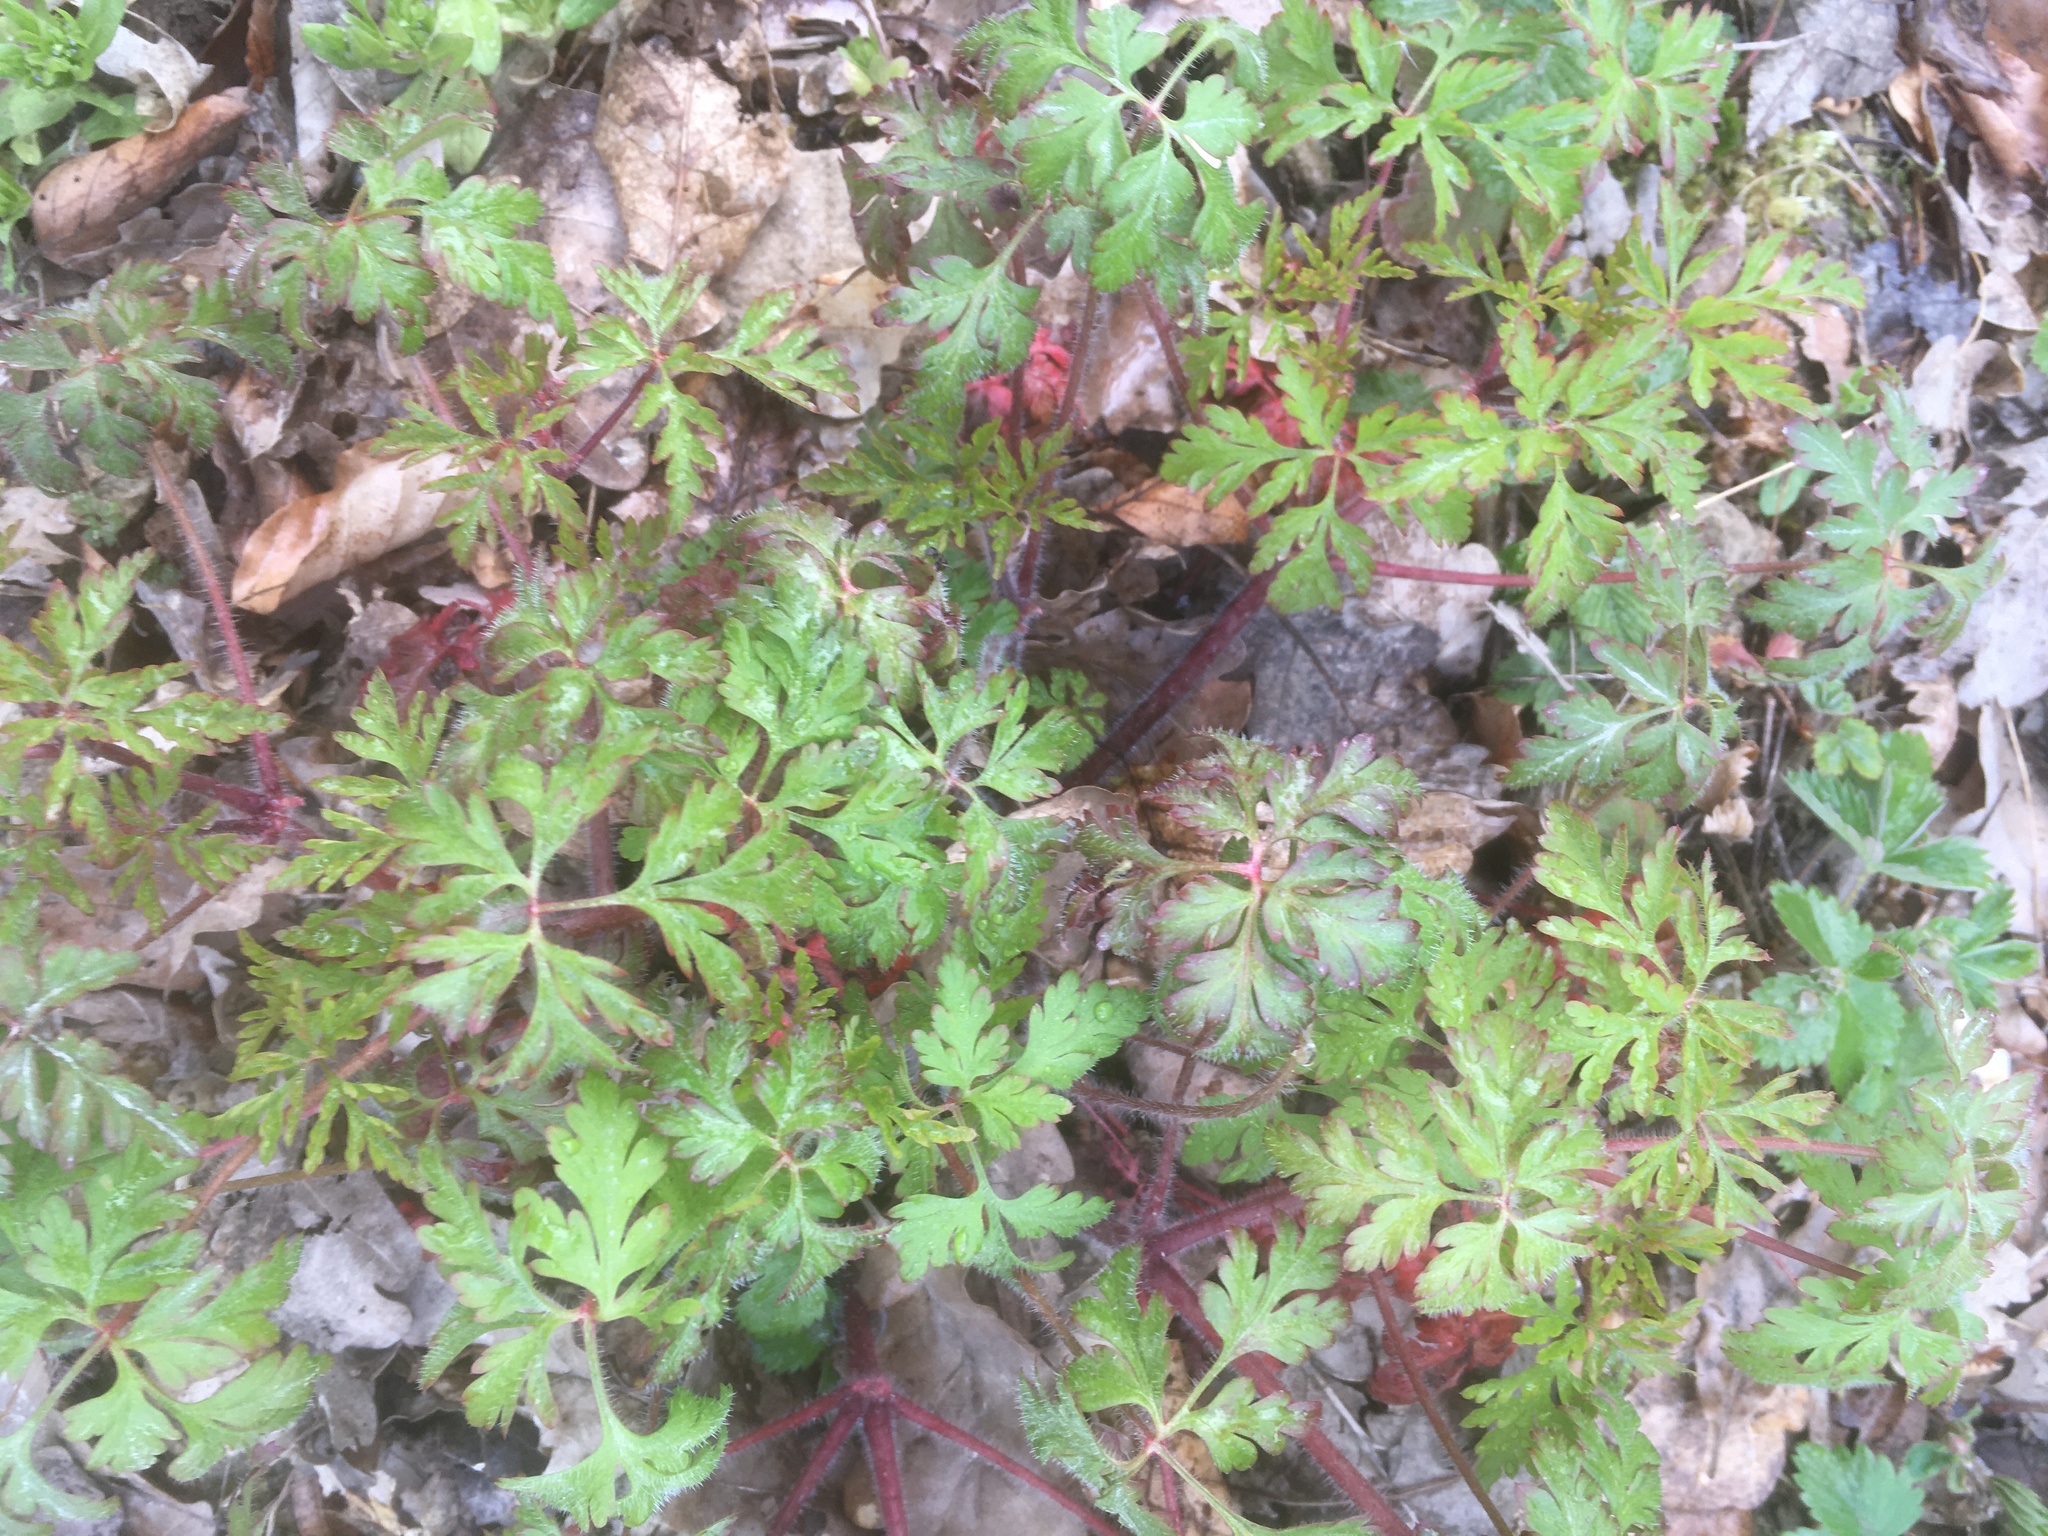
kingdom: Plantae
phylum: Tracheophyta
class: Magnoliopsida
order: Geraniales
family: Geraniaceae
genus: Geranium
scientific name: Geranium robertianum
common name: Herb-robert
